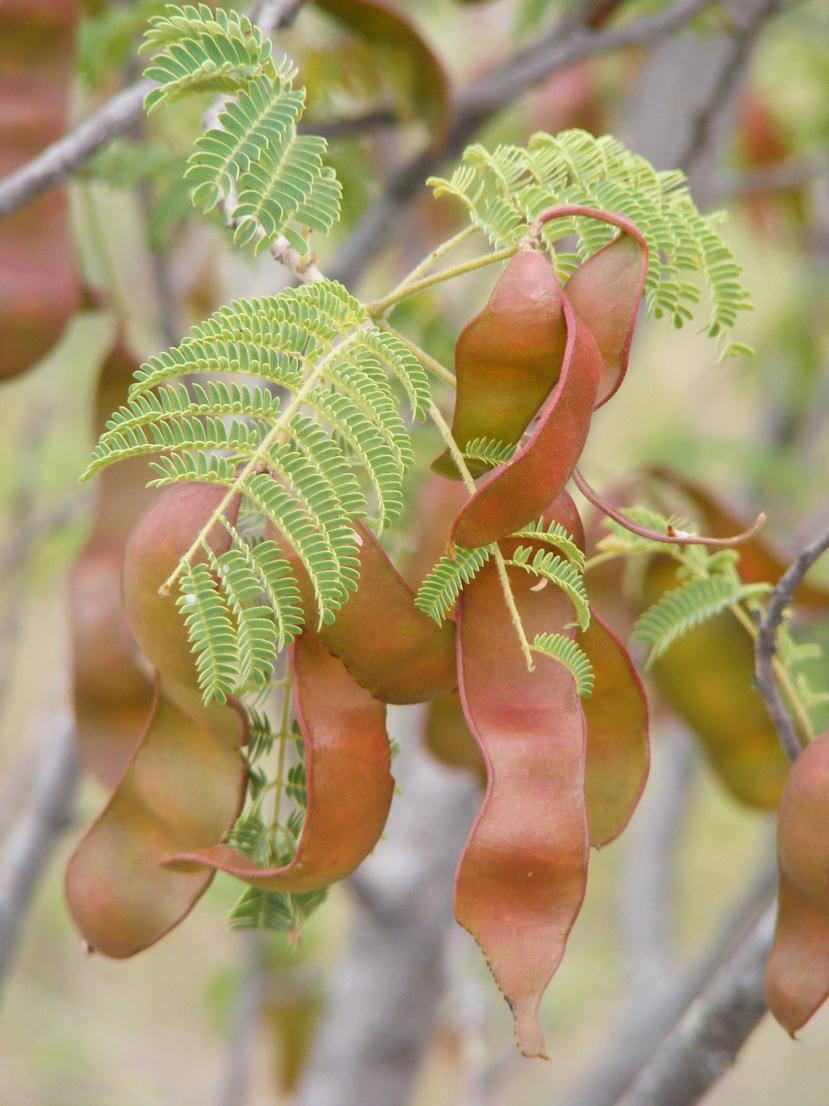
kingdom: Plantae
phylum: Tracheophyta
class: Magnoliopsida
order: Fabales
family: Fabaceae
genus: Albizia
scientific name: Albizia harveyi
